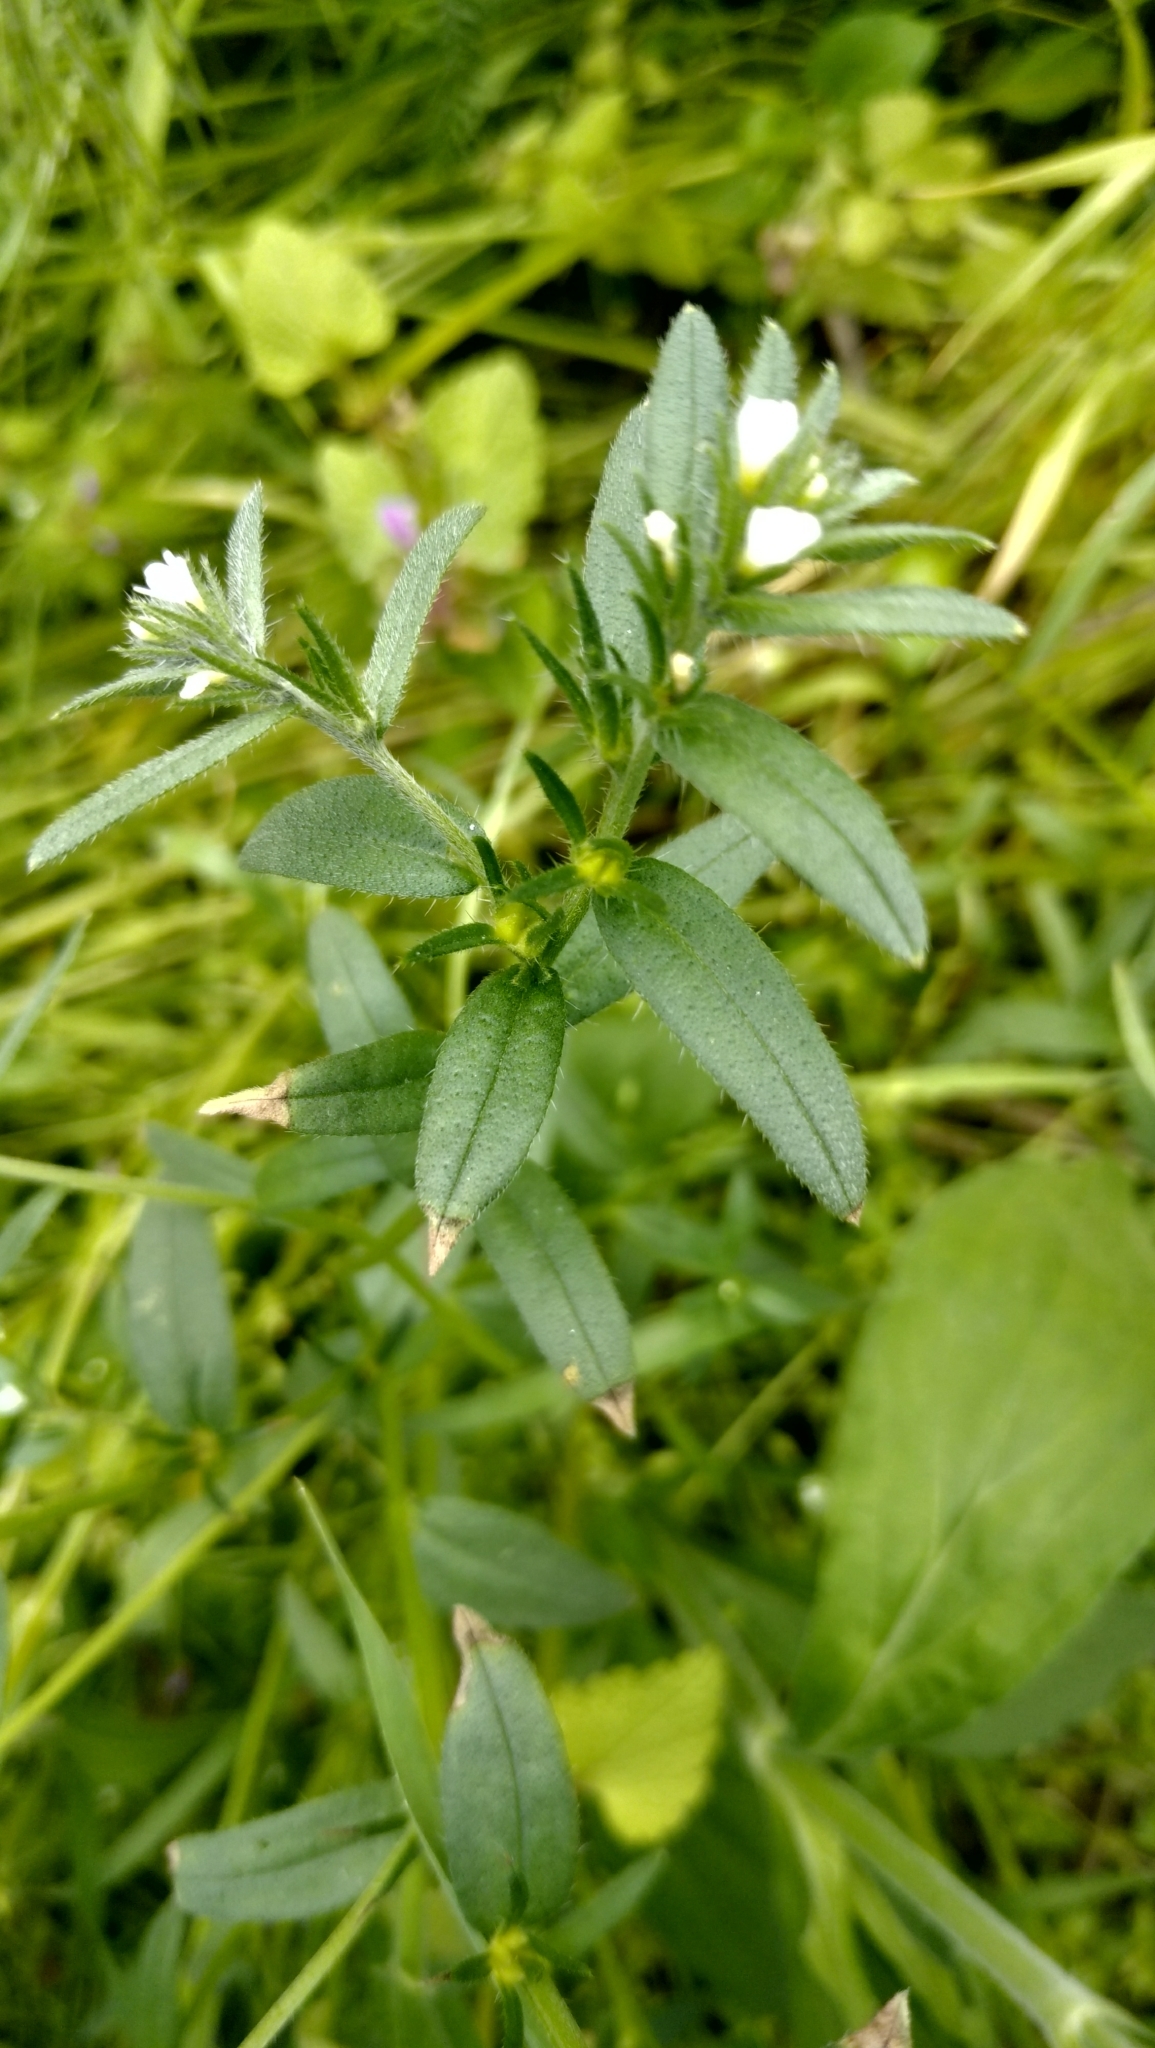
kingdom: Plantae
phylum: Tracheophyta
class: Magnoliopsida
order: Boraginales
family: Boraginaceae
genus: Buglossoides
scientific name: Buglossoides arvensis
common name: Corn gromwell
